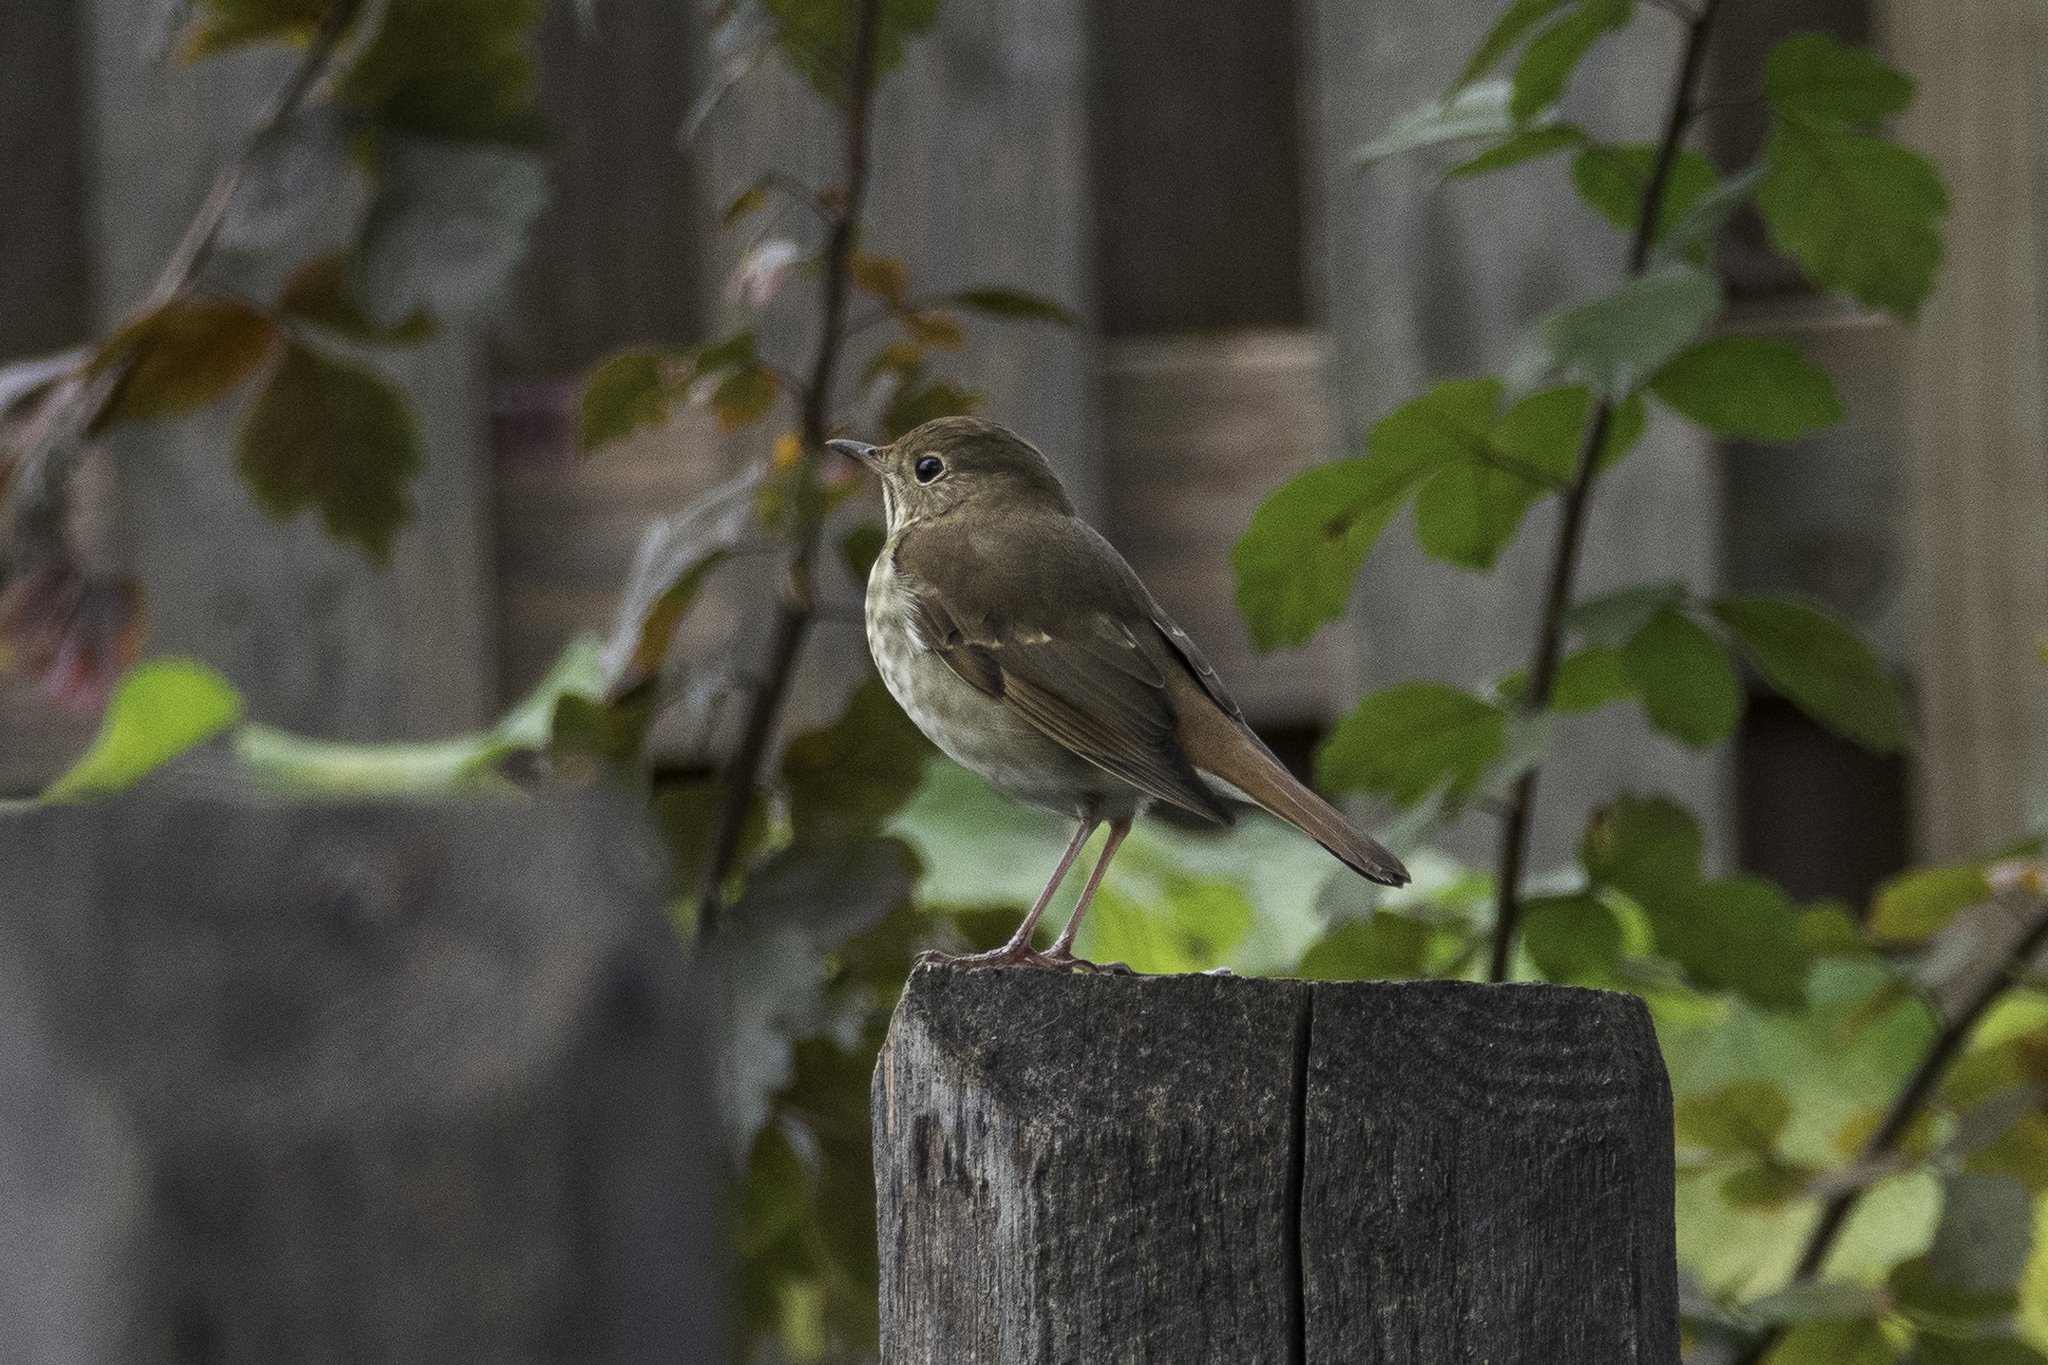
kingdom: Animalia
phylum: Chordata
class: Aves
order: Passeriformes
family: Turdidae
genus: Catharus
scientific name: Catharus guttatus
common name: Hermit thrush
